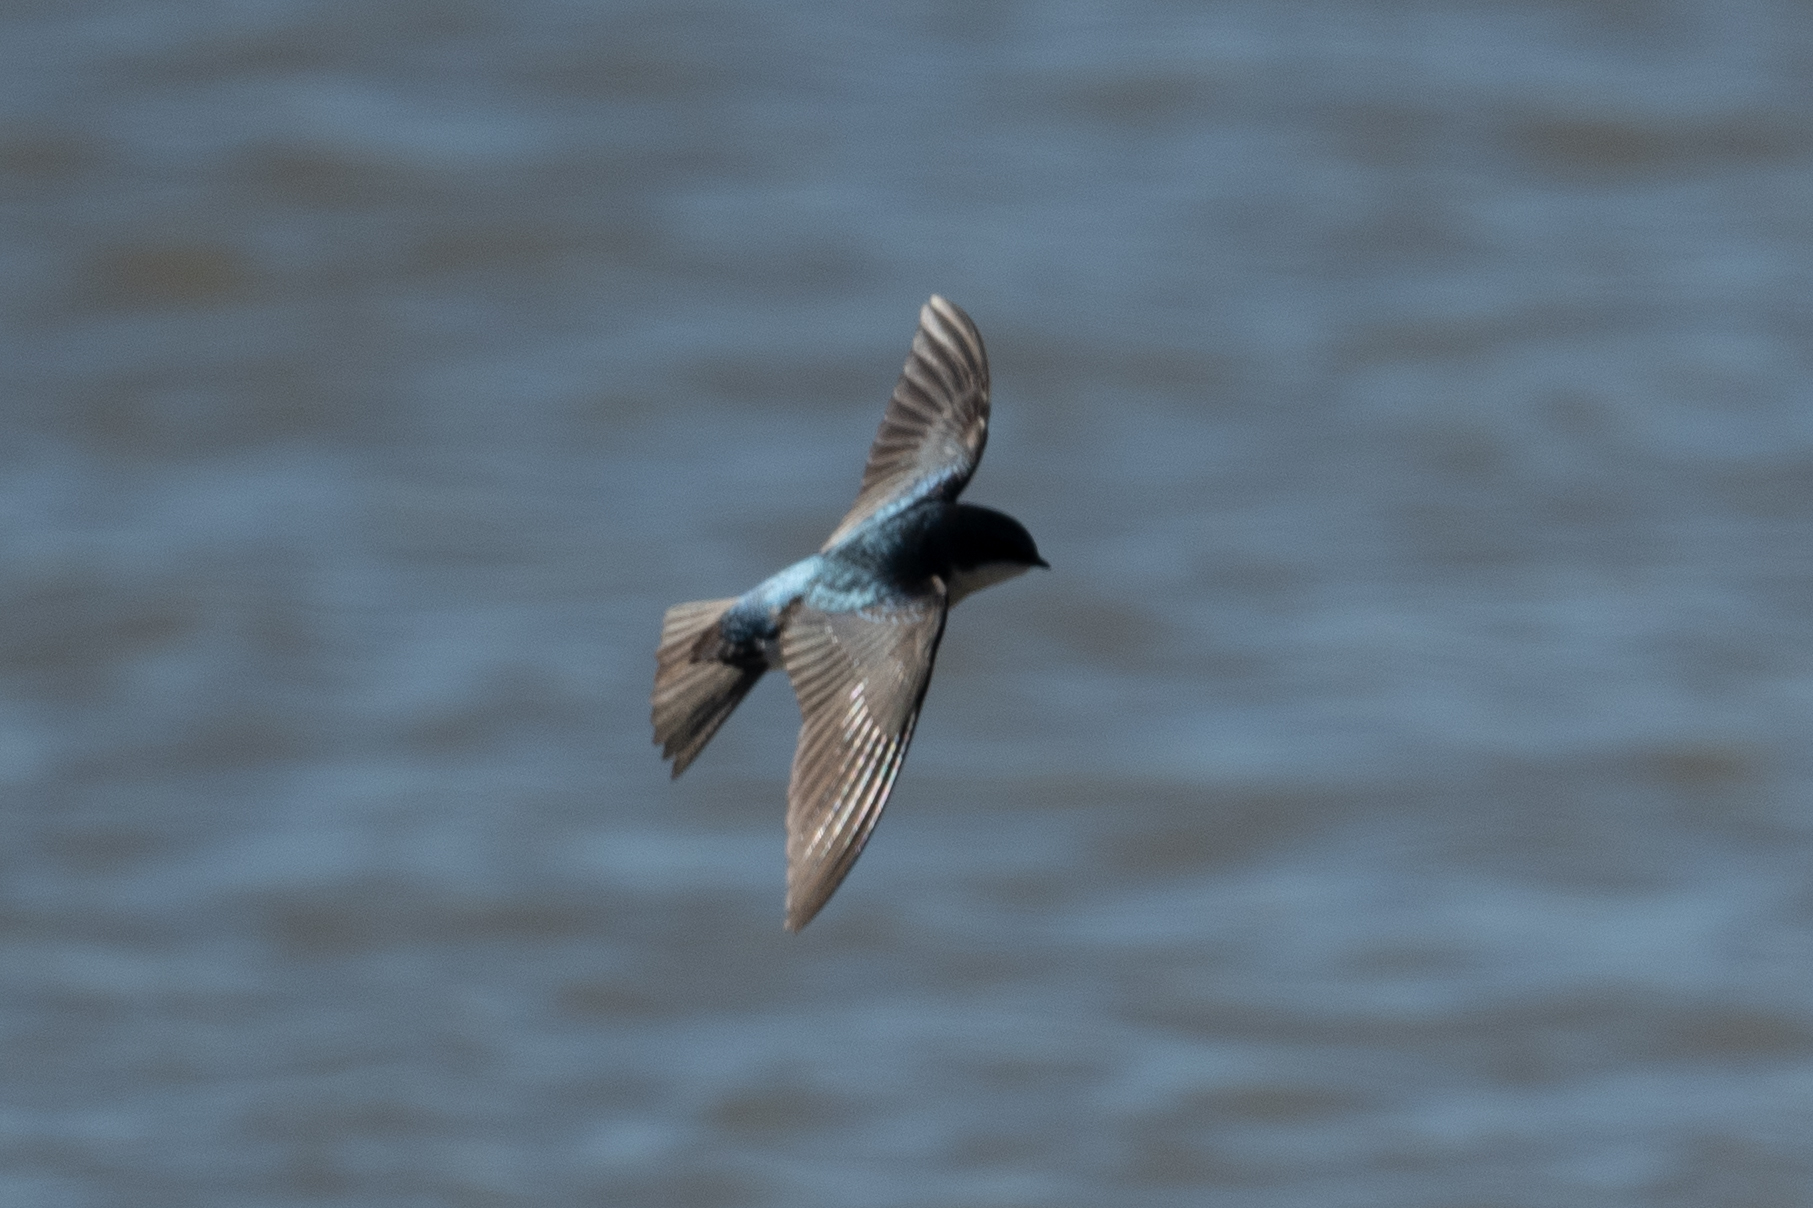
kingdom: Animalia
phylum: Chordata
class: Aves
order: Passeriformes
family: Hirundinidae
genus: Tachycineta
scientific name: Tachycineta bicolor
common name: Tree swallow
